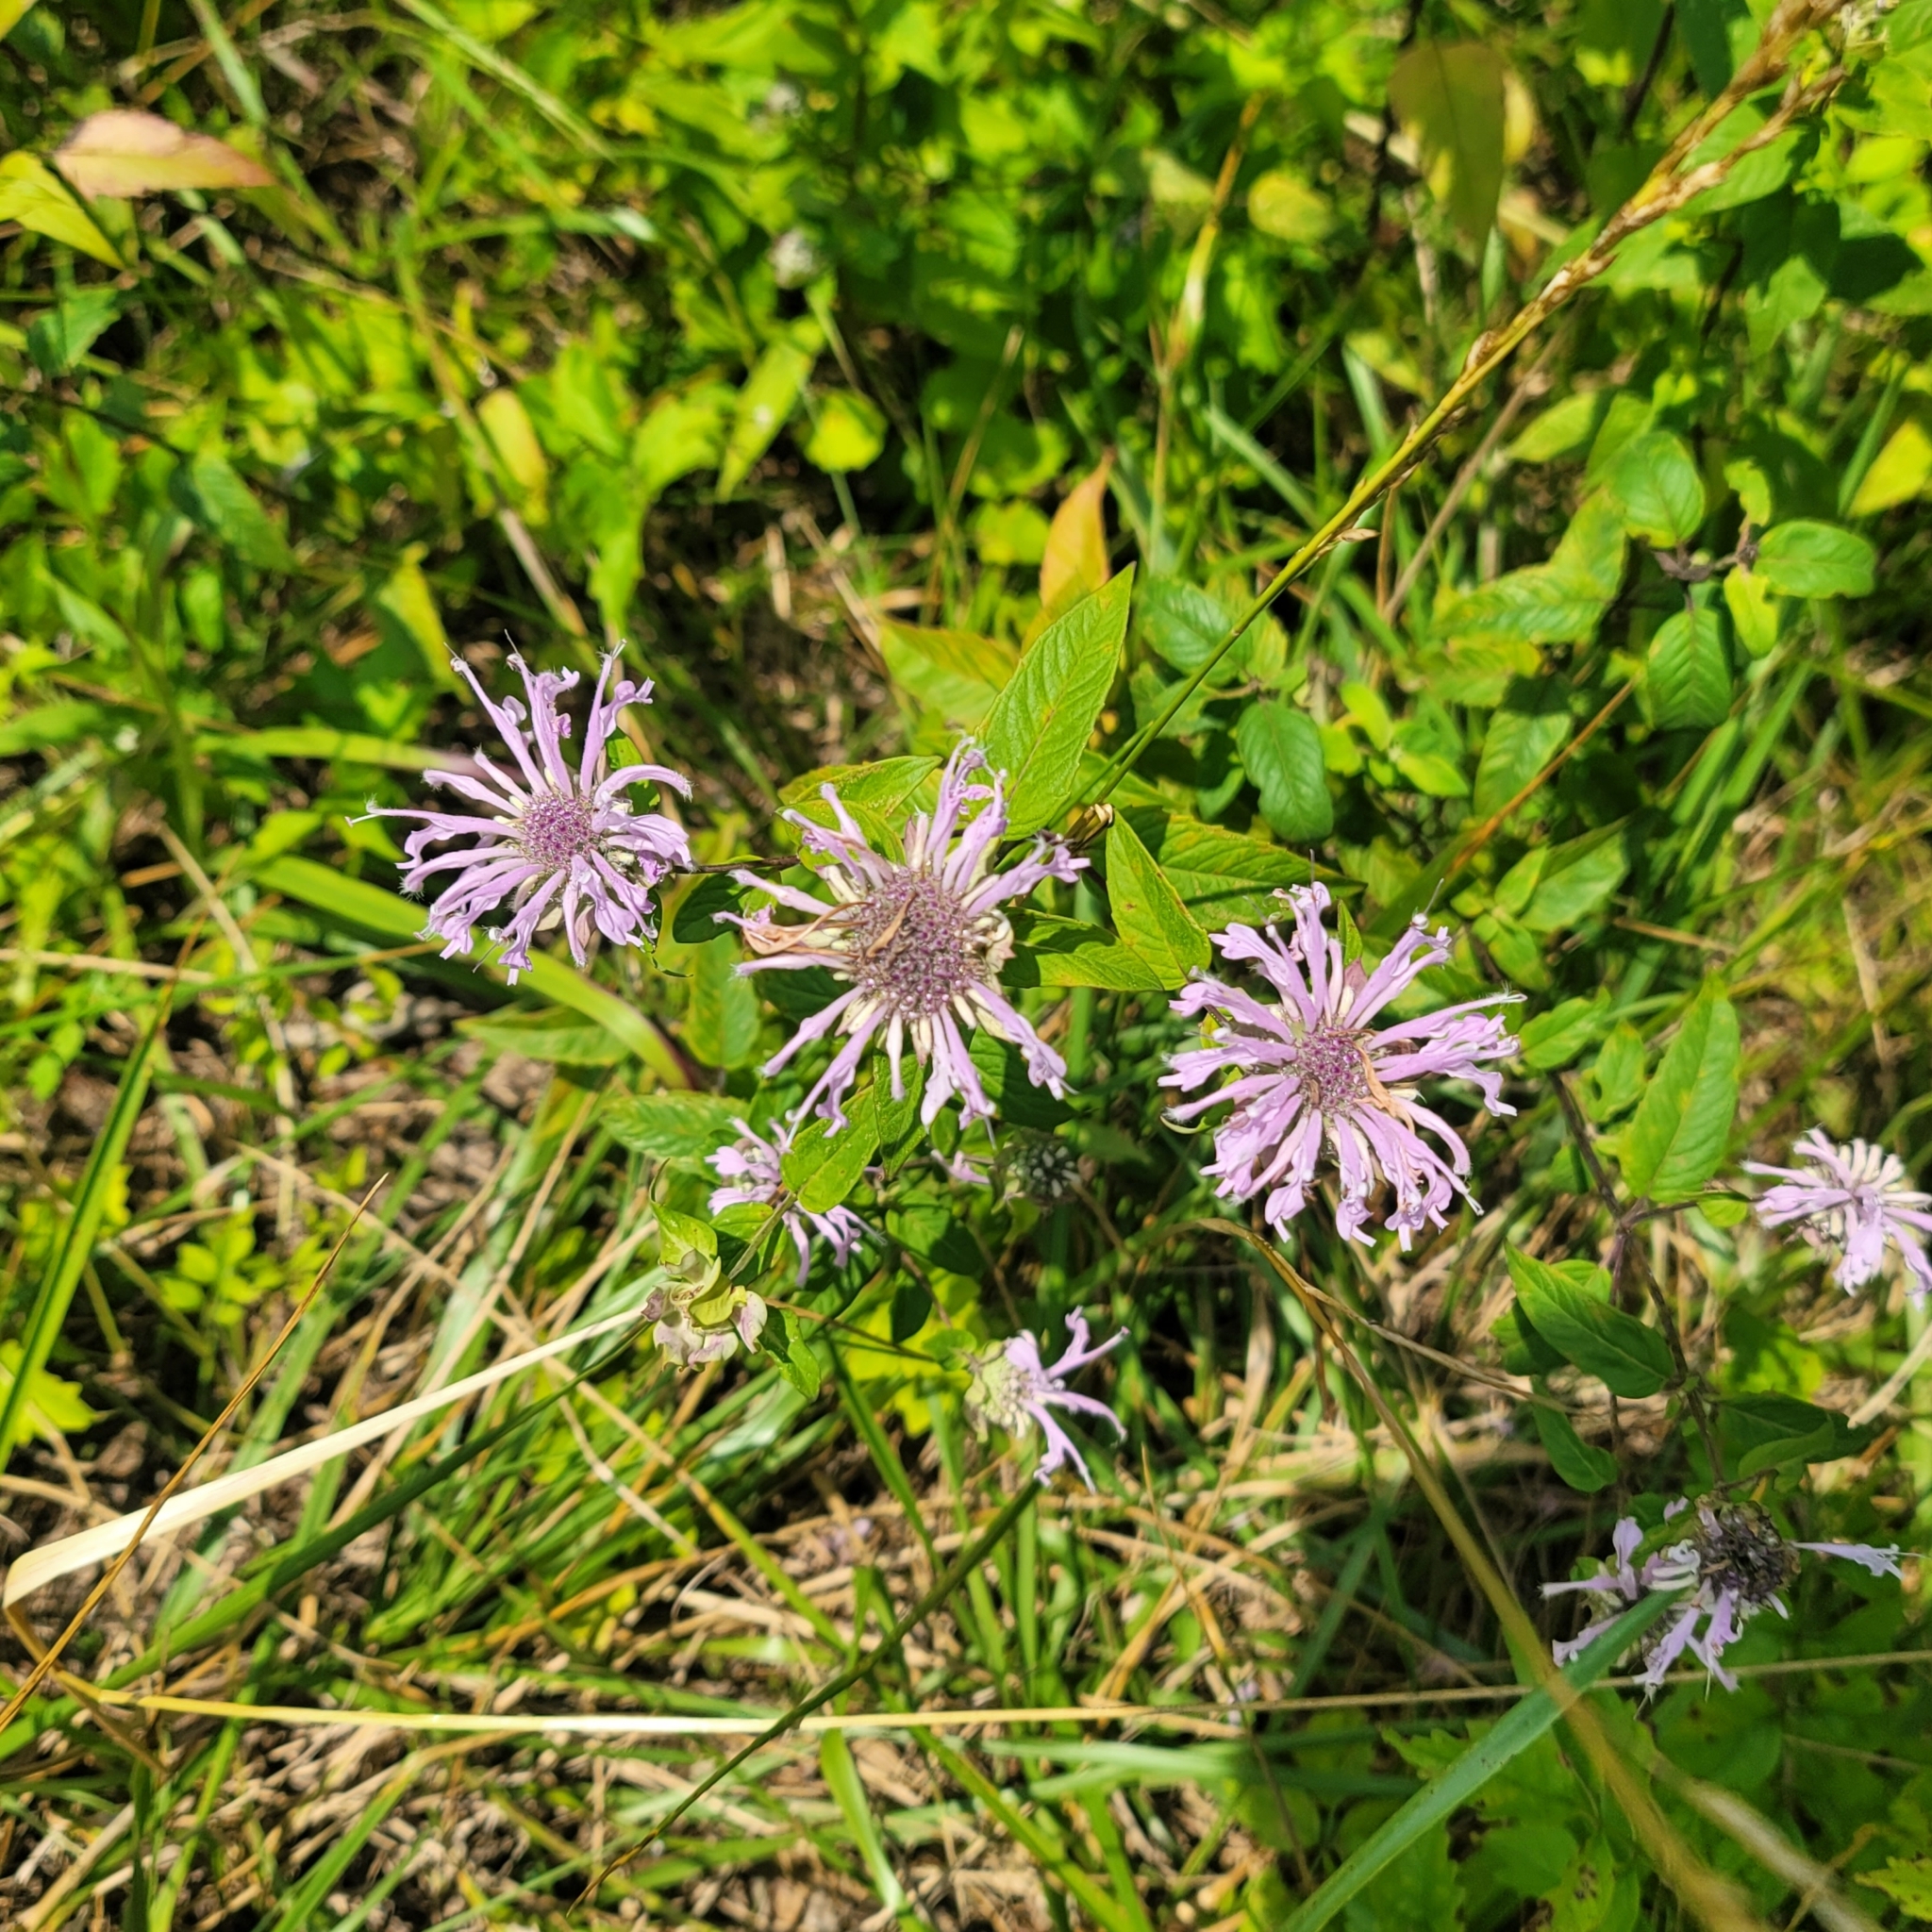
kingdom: Plantae
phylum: Tracheophyta
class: Magnoliopsida
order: Lamiales
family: Lamiaceae
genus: Monarda
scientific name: Monarda fistulosa
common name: Purple beebalm
